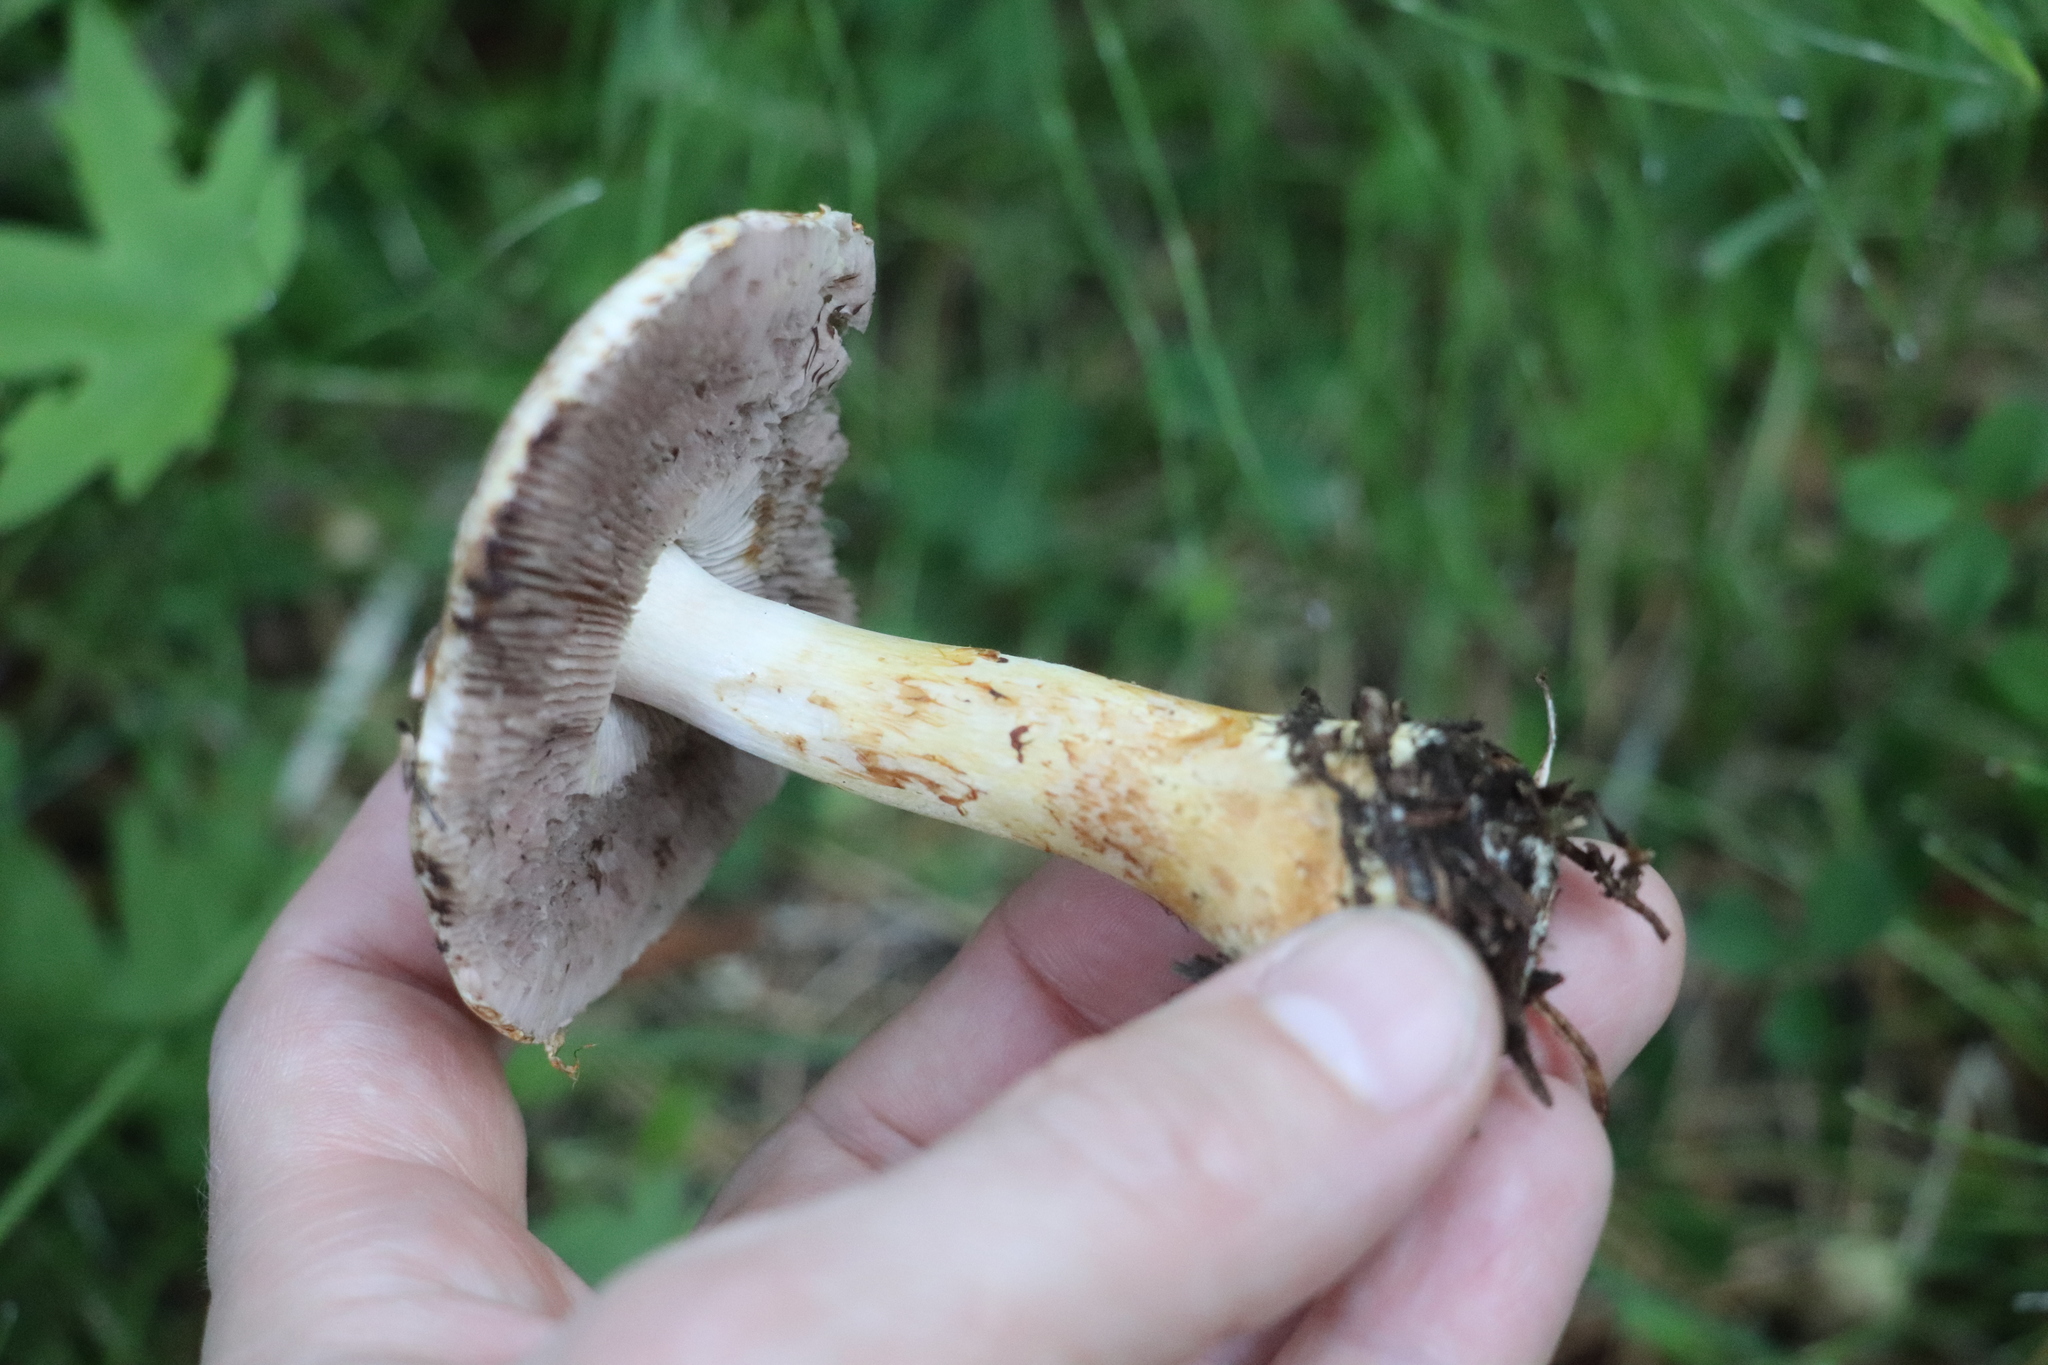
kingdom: Fungi
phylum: Basidiomycota
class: Agaricomycetes
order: Agaricales
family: Agaricaceae
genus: Agaricus
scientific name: Agaricus semotus
